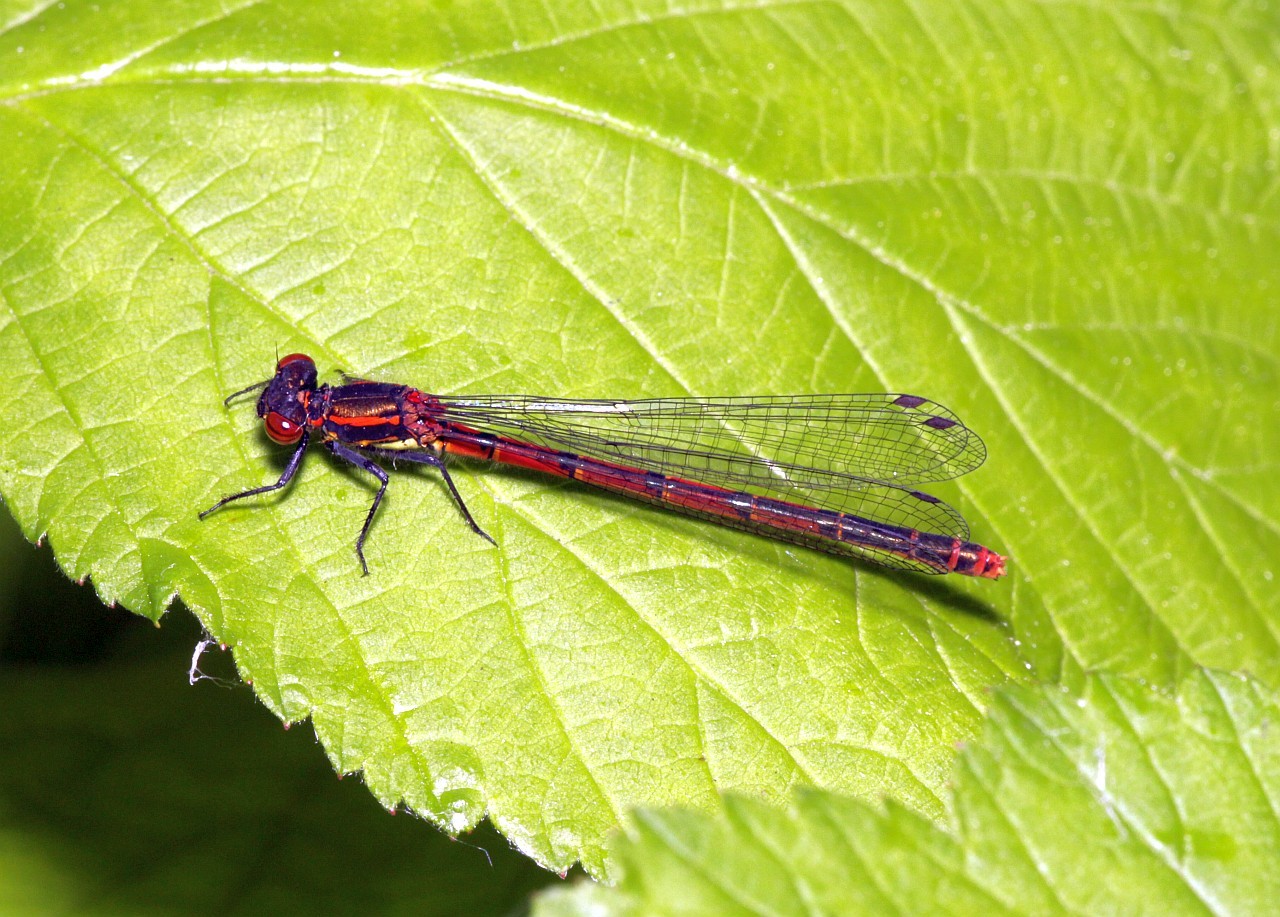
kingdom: Animalia
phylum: Arthropoda
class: Insecta
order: Odonata
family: Coenagrionidae
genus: Pyrrhosoma
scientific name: Pyrrhosoma nymphula
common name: Large red damsel
